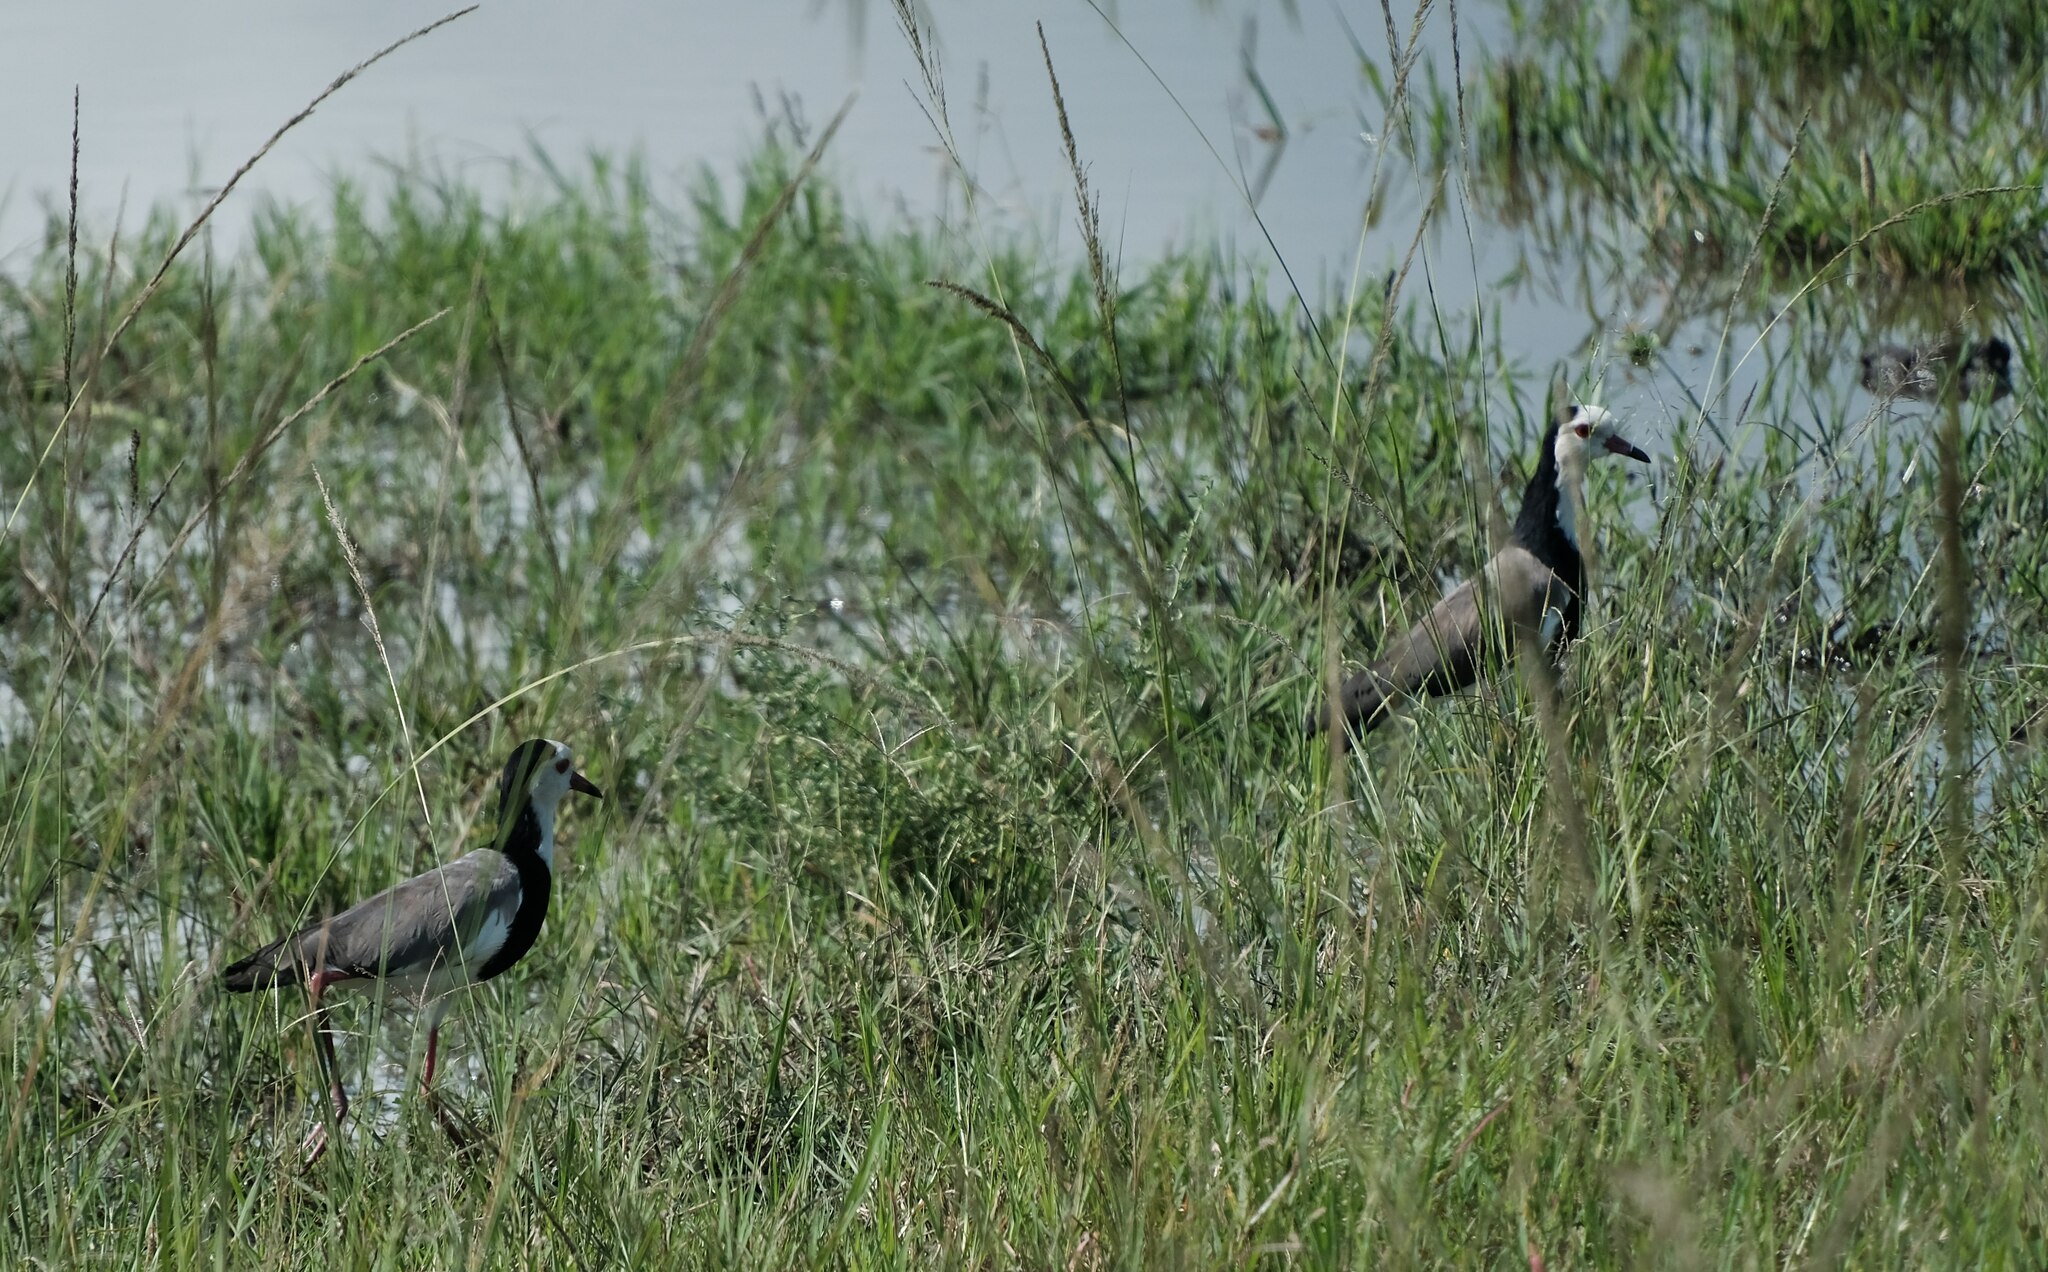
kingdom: Animalia
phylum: Chordata
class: Aves
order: Charadriiformes
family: Charadriidae
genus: Vanellus
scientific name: Vanellus crassirostris
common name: Long-toed lapwing
